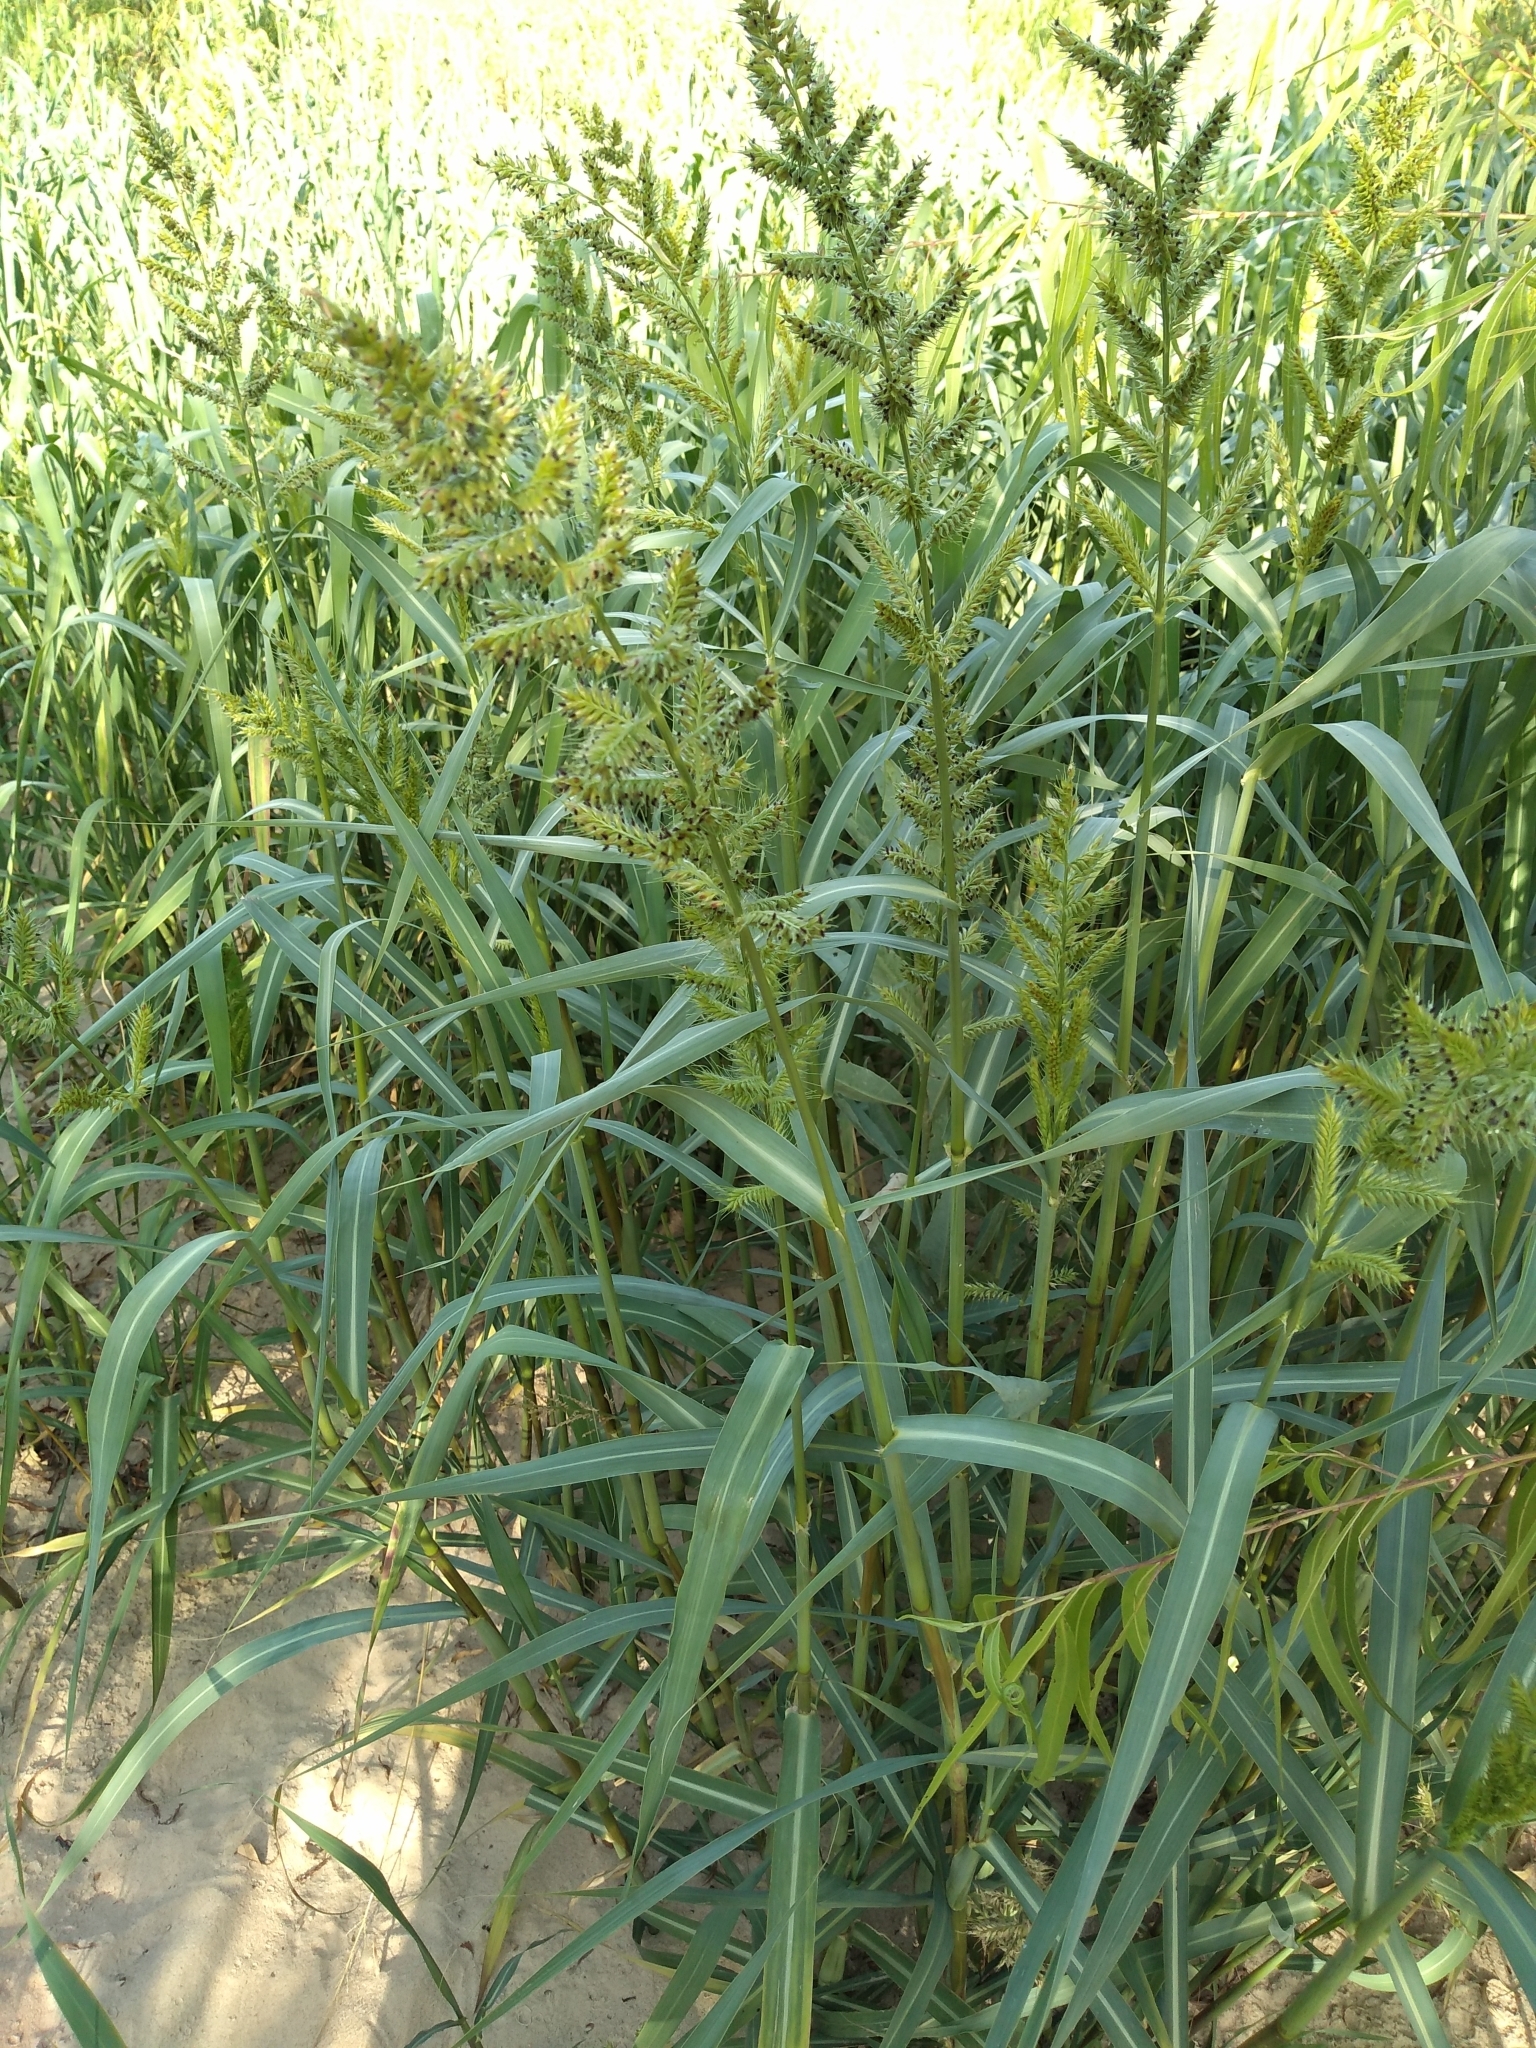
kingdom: Plantae
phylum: Tracheophyta
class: Liliopsida
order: Poales
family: Poaceae
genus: Echinochloa
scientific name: Echinochloa polystachya
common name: Creeping river grass
